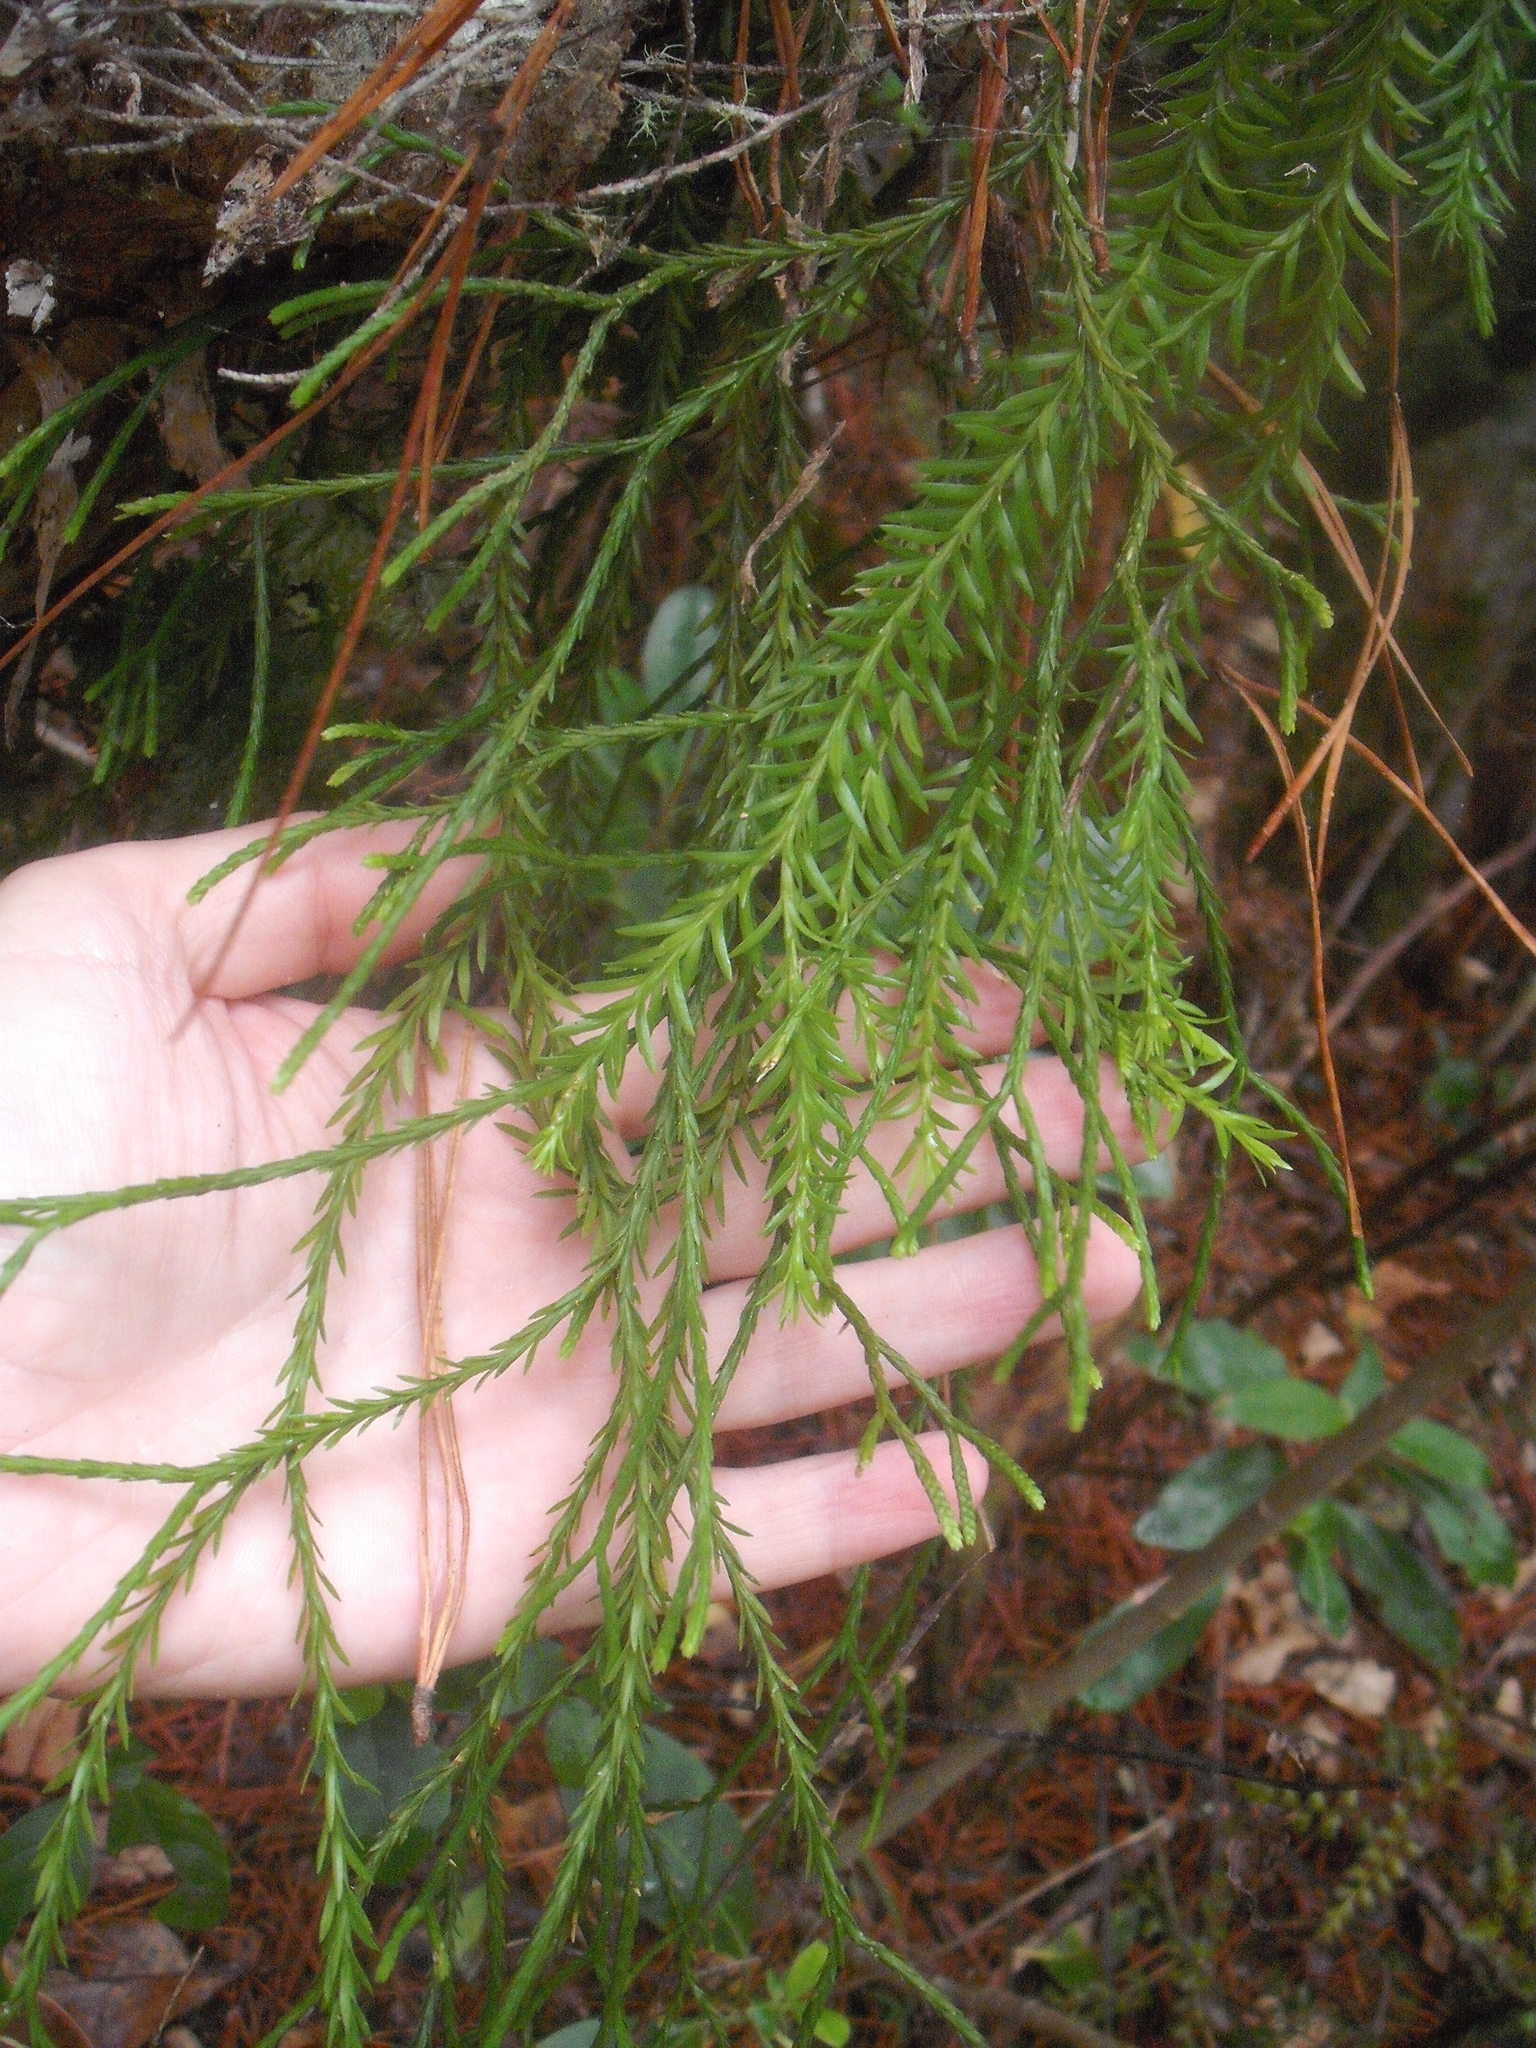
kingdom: Plantae
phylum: Tracheophyta
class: Lycopodiopsida
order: Lycopodiales
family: Lycopodiaceae
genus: Phlegmariurus
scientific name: Phlegmariurus billardierei
